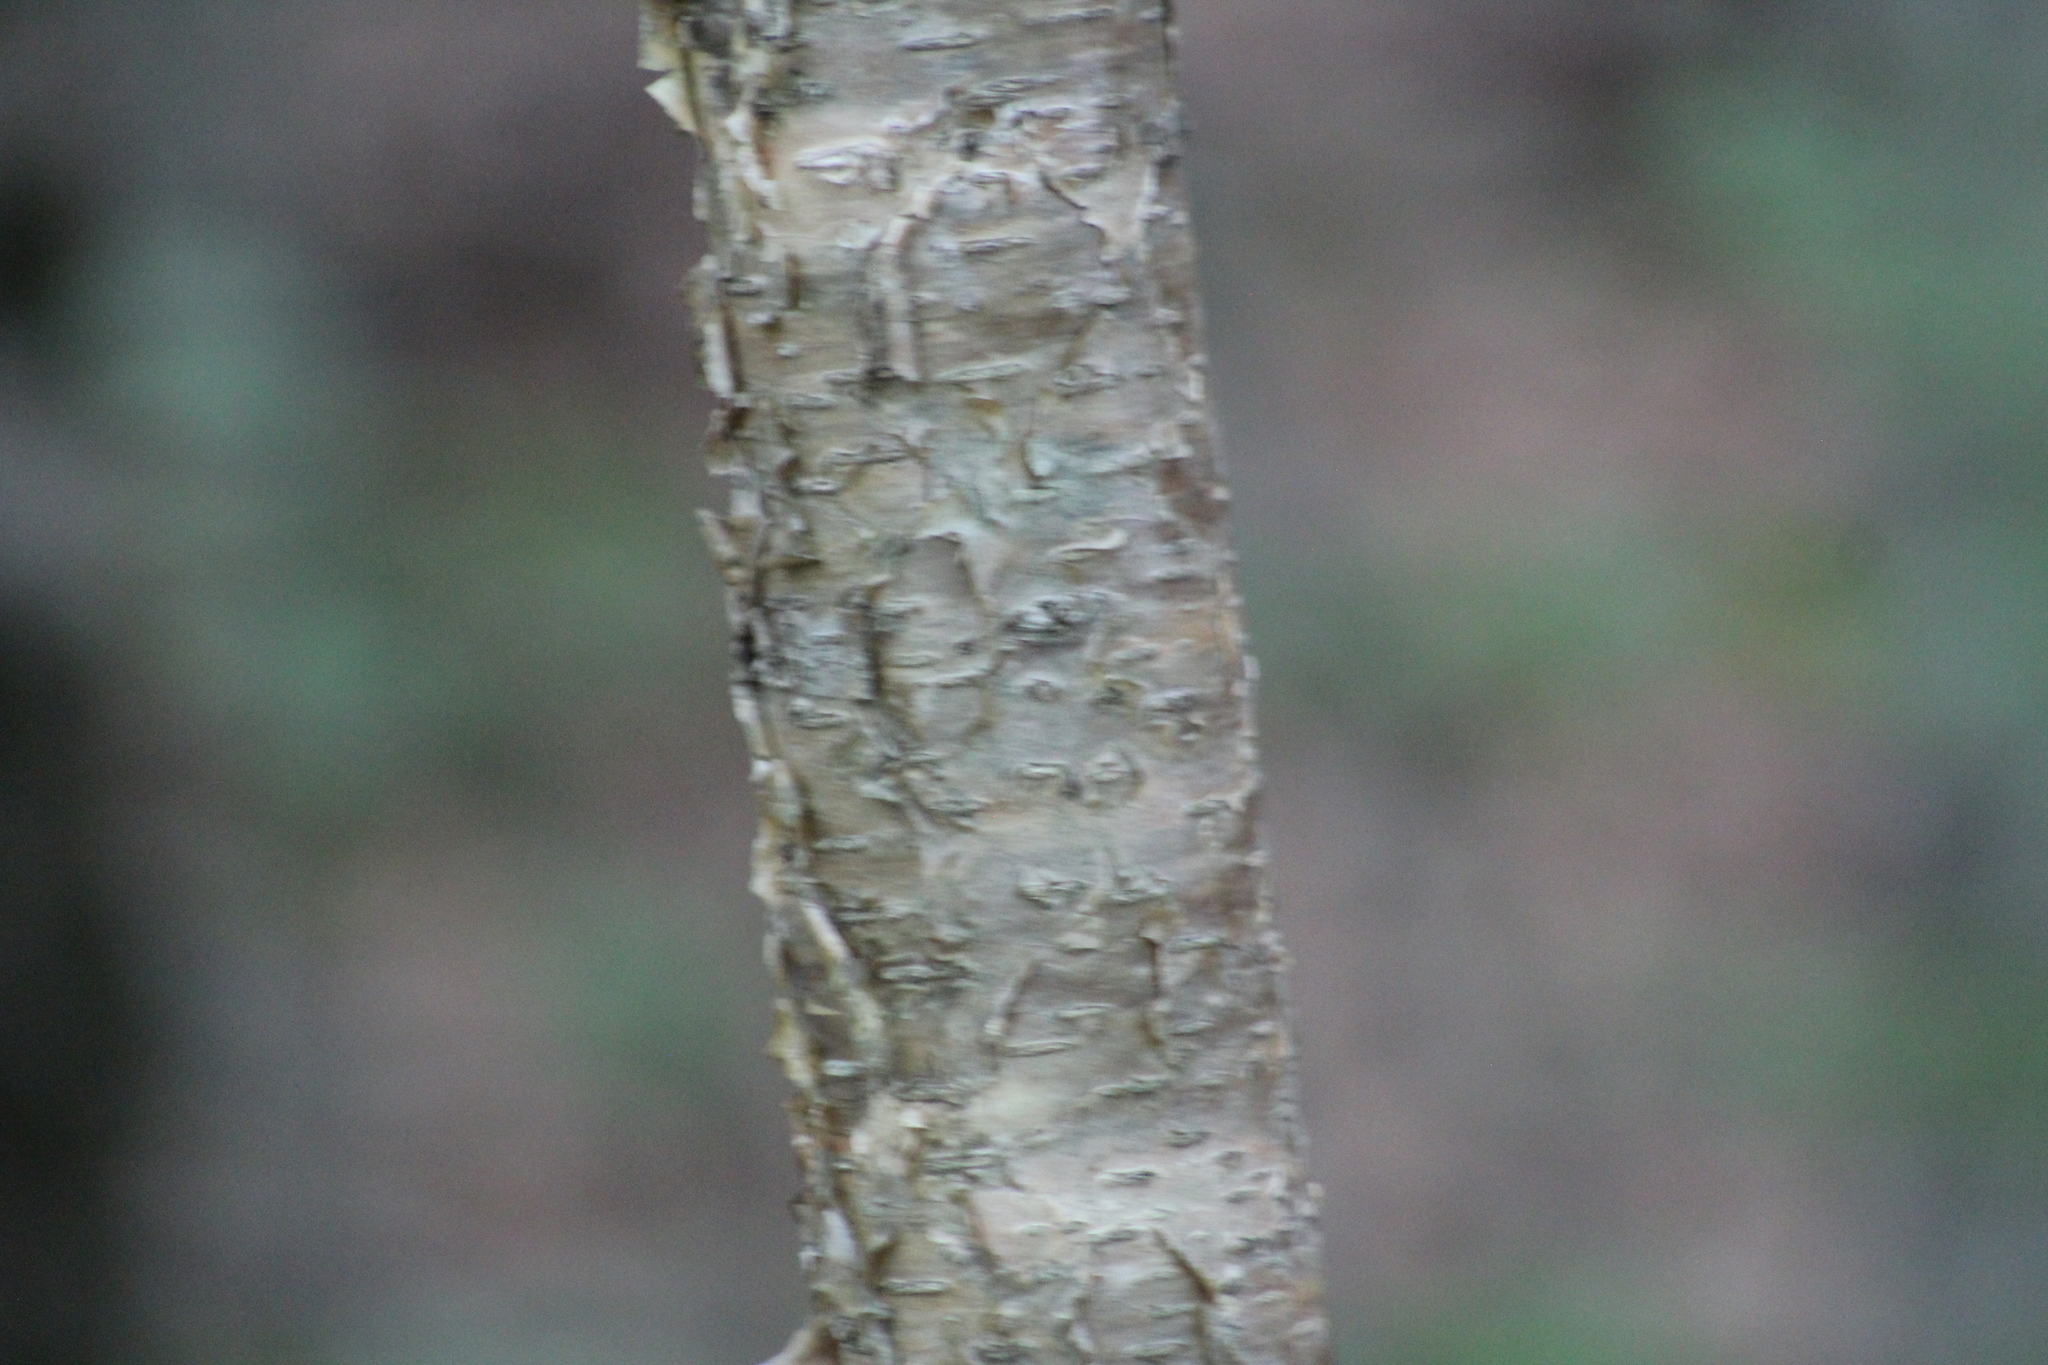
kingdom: Plantae
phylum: Tracheophyta
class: Magnoliopsida
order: Fagales
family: Betulaceae
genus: Betula
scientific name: Betula alleghaniensis
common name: Yellow birch
